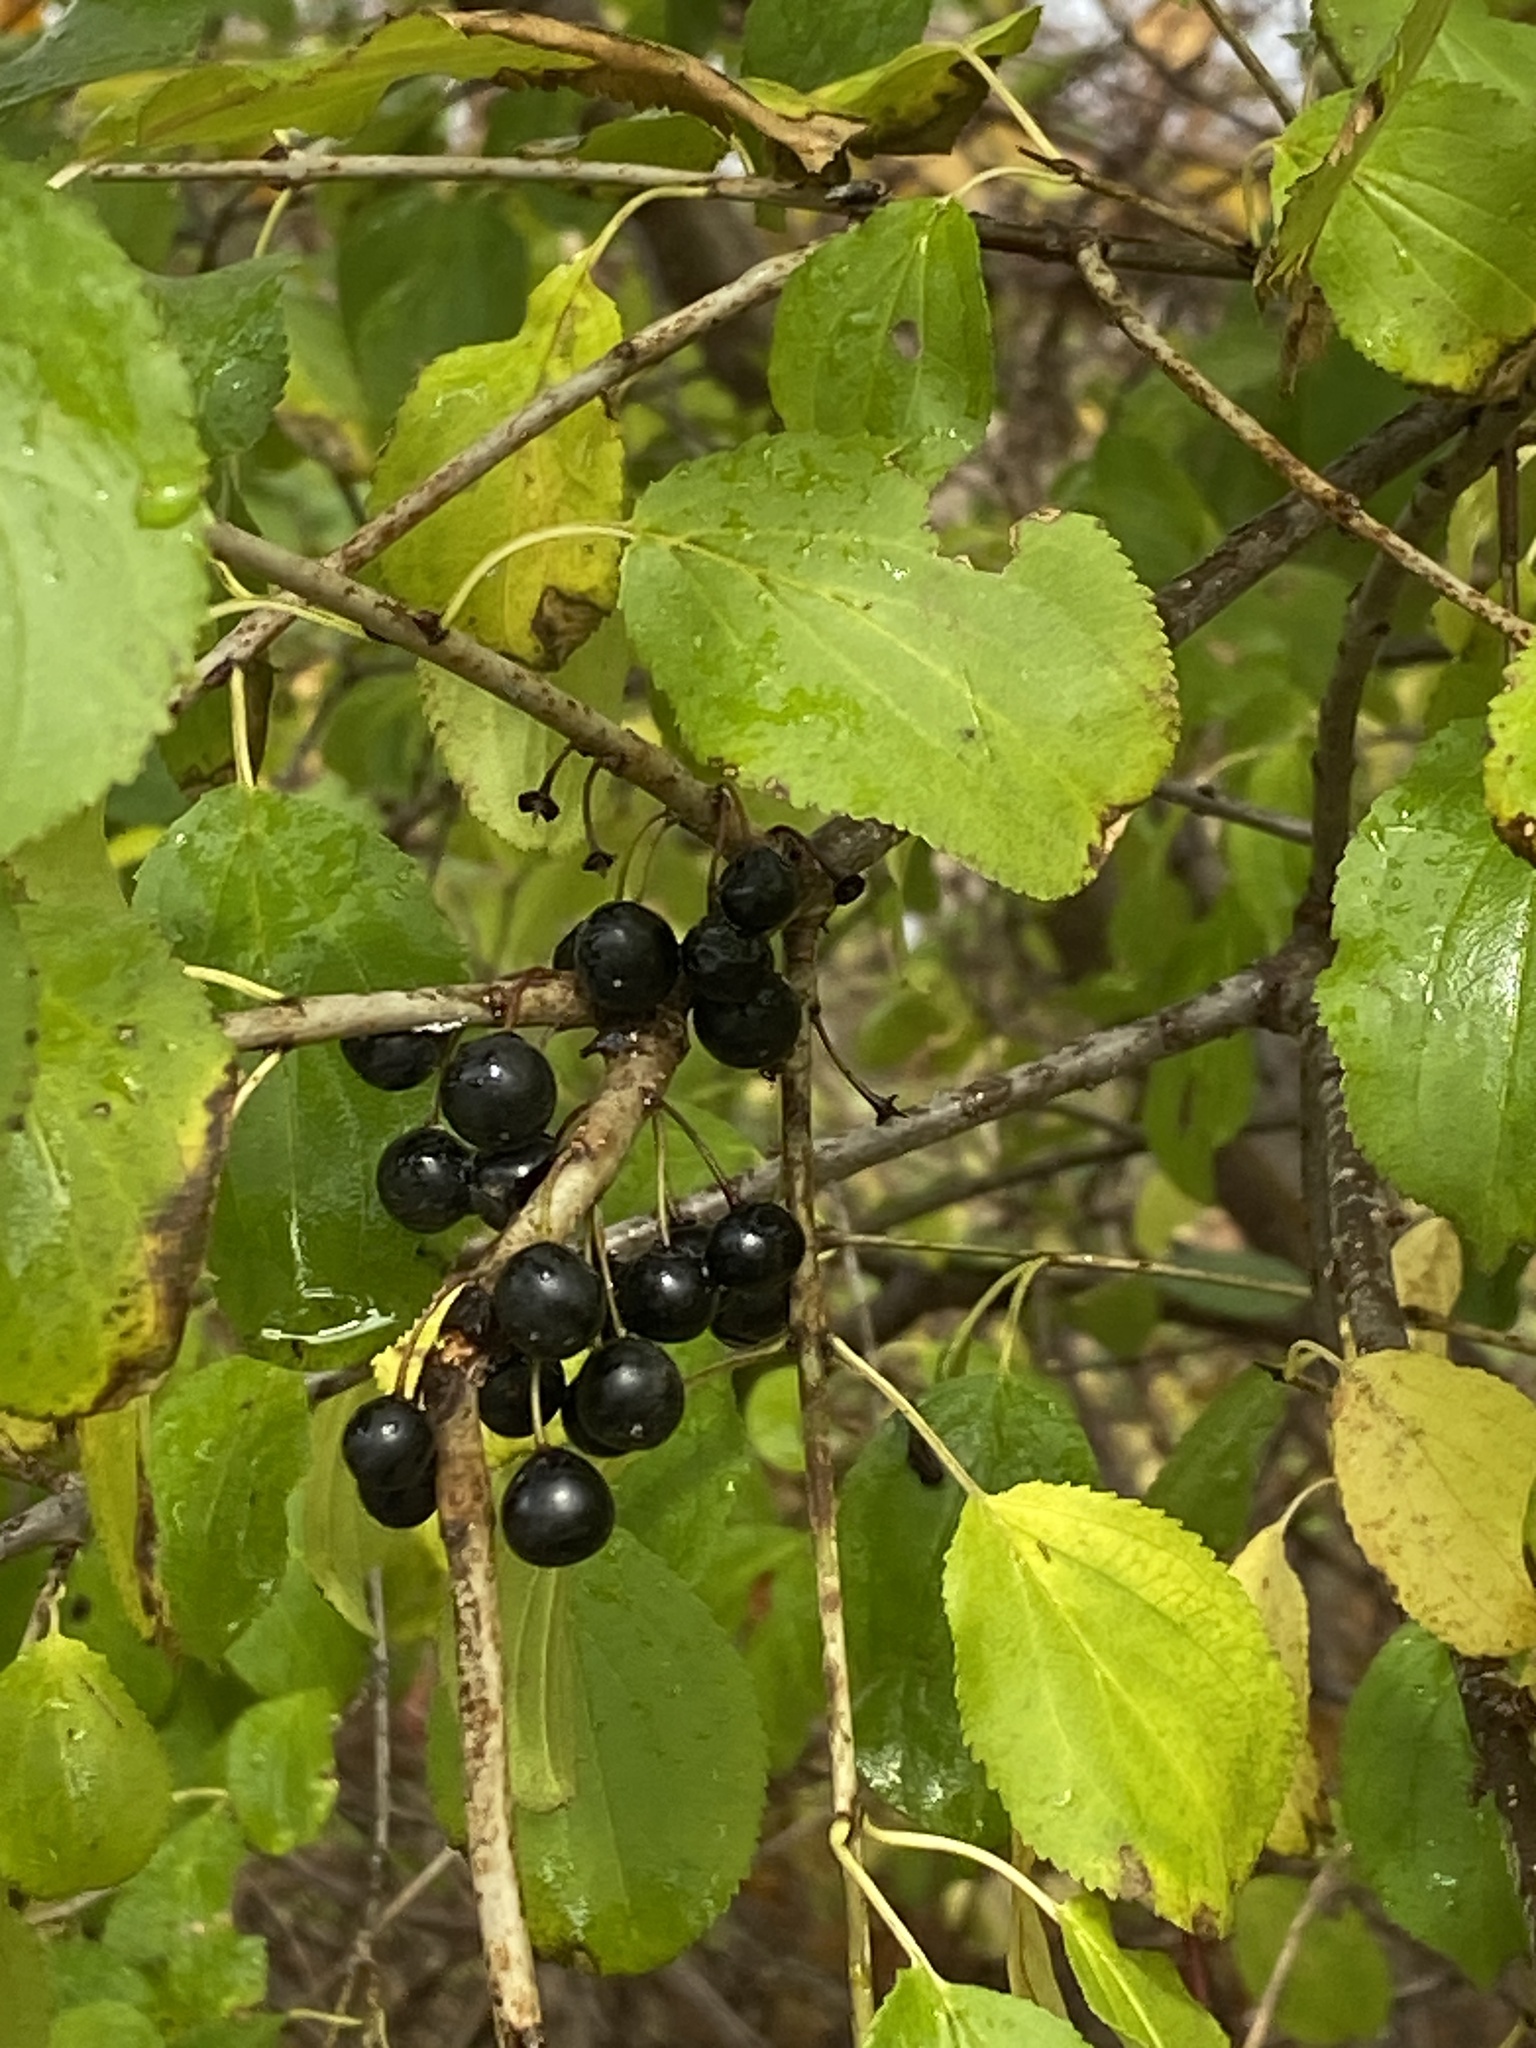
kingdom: Plantae
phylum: Tracheophyta
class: Magnoliopsida
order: Rosales
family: Rhamnaceae
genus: Rhamnus
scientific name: Rhamnus cathartica
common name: Common buckthorn
